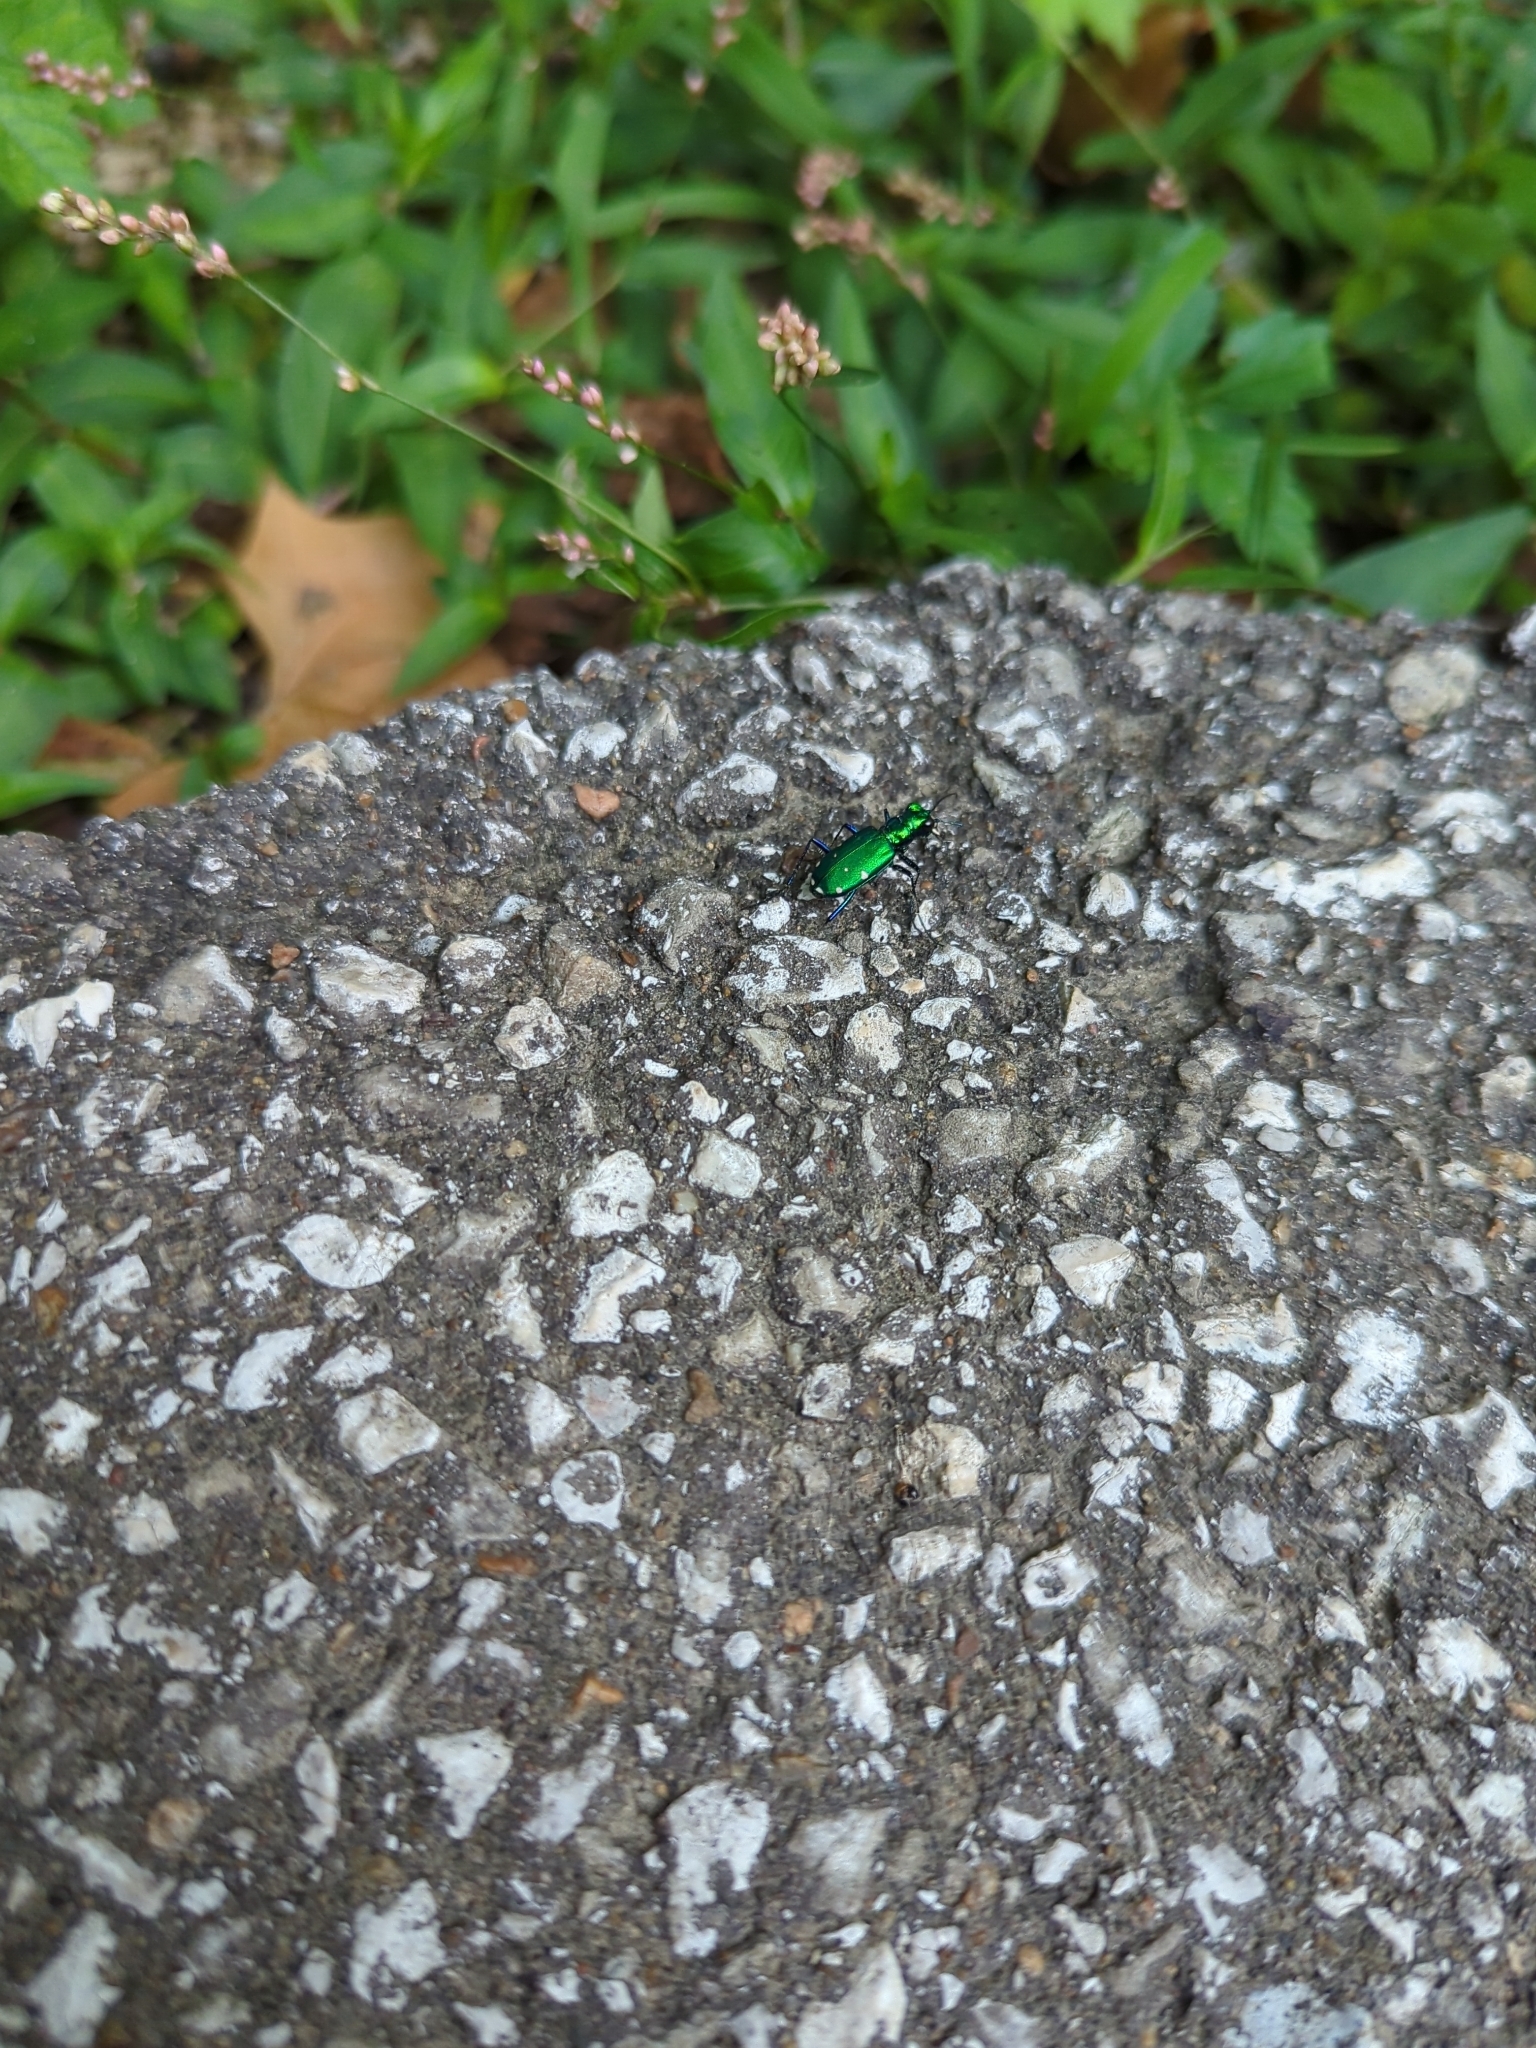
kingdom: Animalia
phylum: Arthropoda
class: Insecta
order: Coleoptera
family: Carabidae
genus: Cicindela
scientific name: Cicindela sexguttata
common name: Six-spotted tiger beetle
